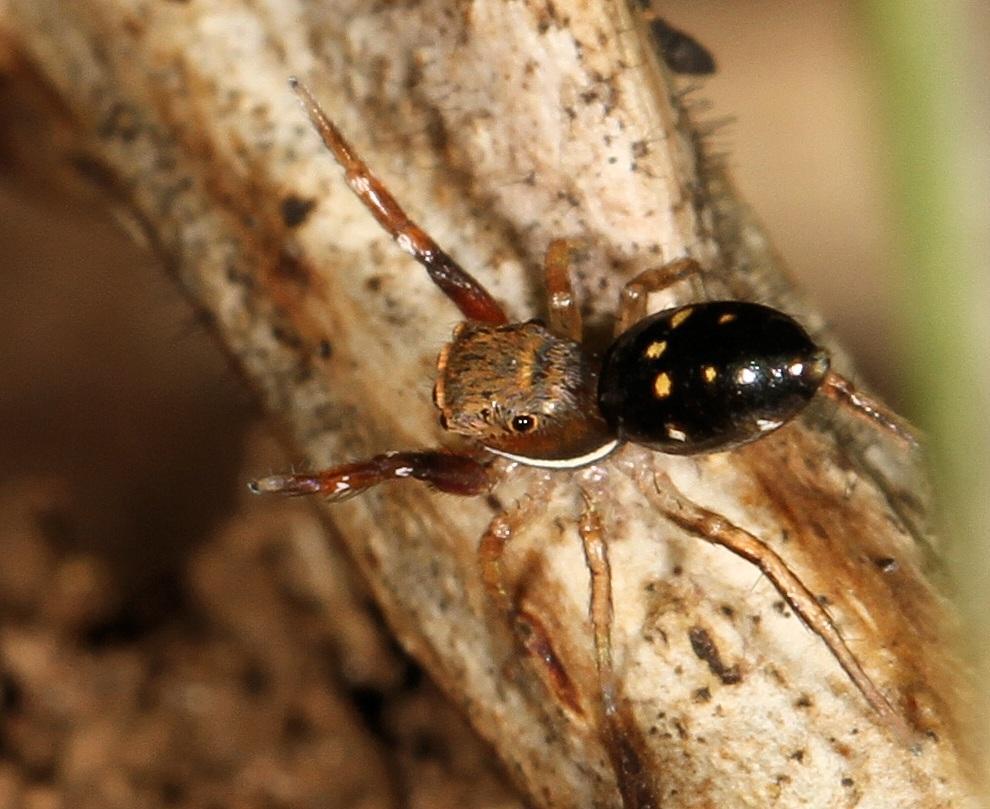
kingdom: Animalia
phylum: Arthropoda
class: Arachnida
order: Araneae
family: Salticidae
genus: Natta
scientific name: Natta horizontalis
